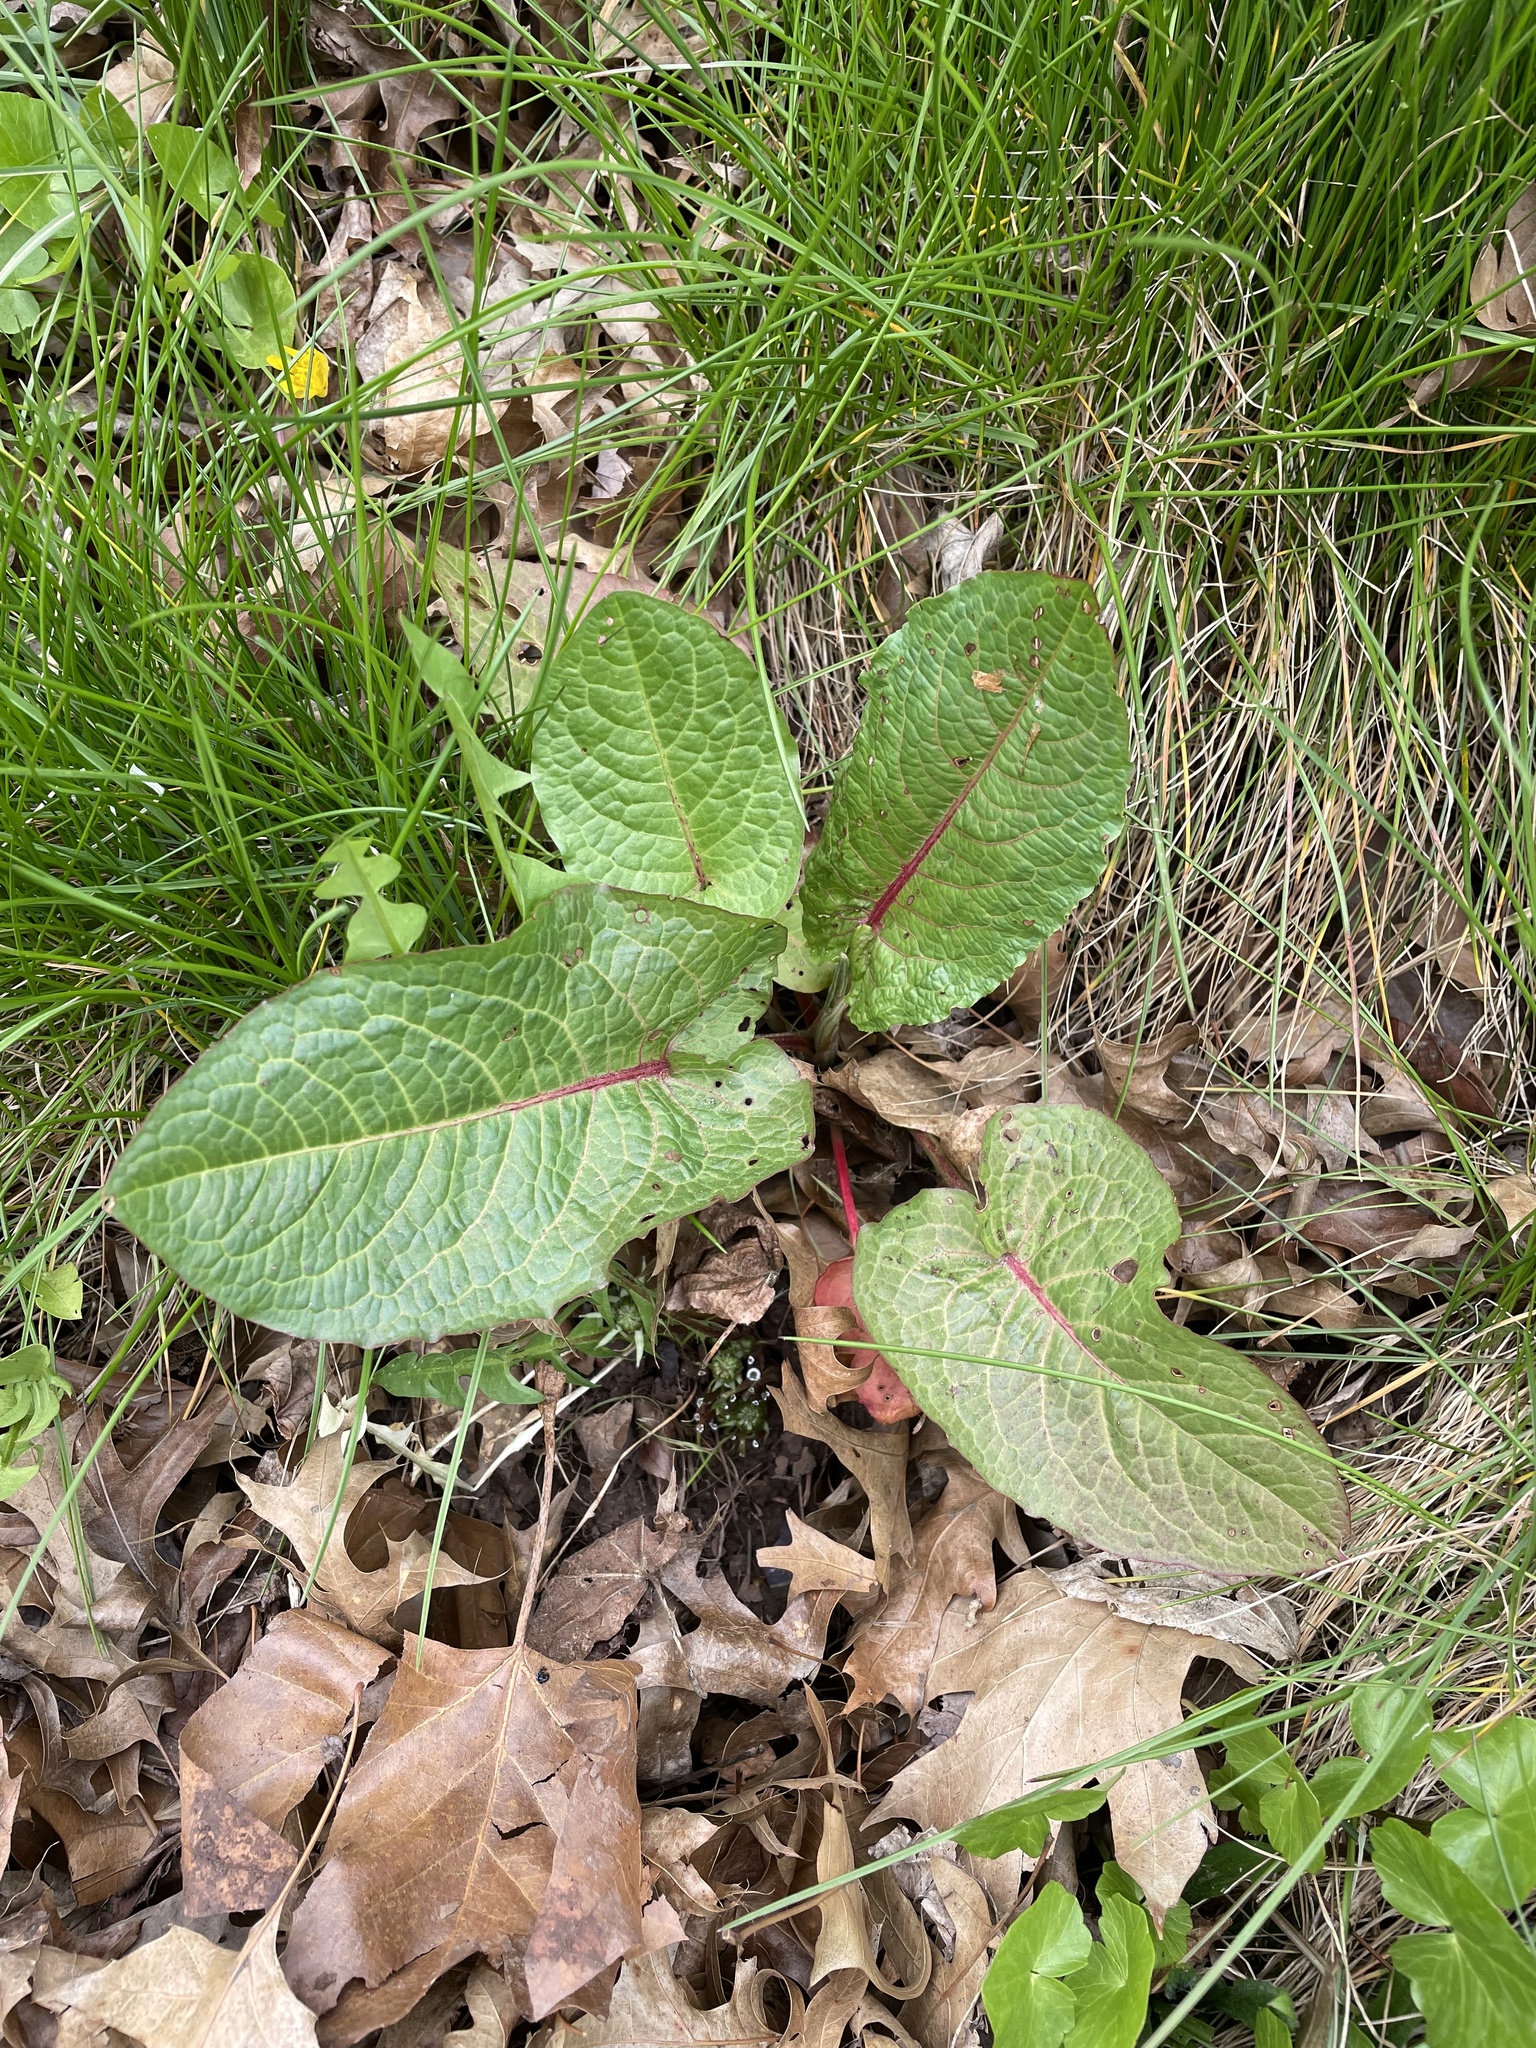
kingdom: Plantae
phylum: Tracheophyta
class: Magnoliopsida
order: Caryophyllales
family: Polygonaceae
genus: Rumex
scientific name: Rumex obtusifolius
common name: Bitter dock
